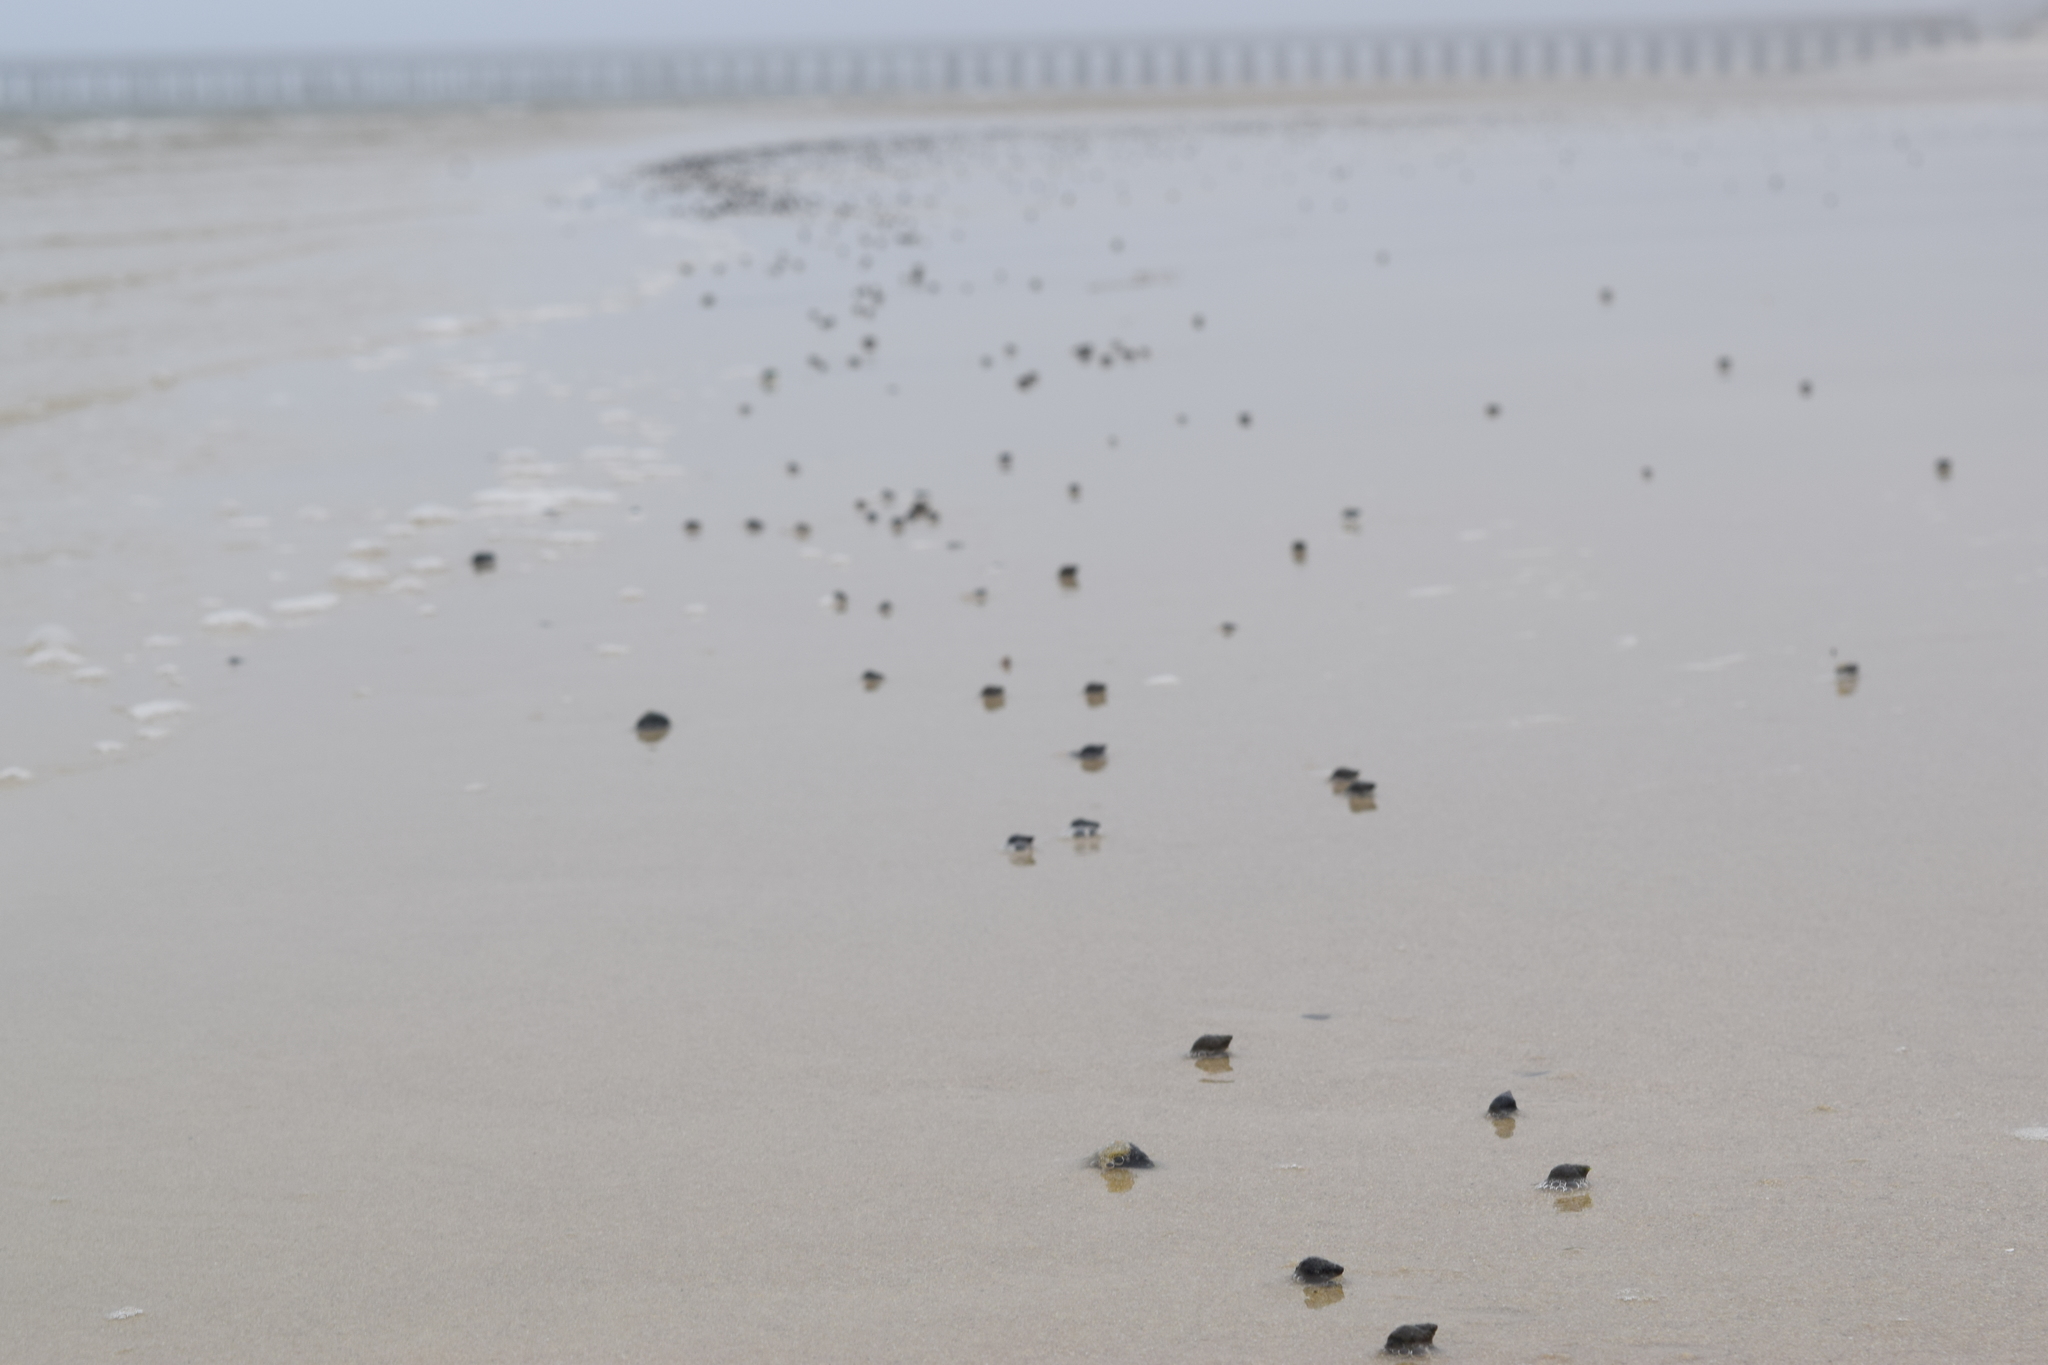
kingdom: Animalia
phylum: Mollusca
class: Gastropoda
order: Neogastropoda
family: Nassariidae
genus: Ilyanassa
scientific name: Ilyanassa obsoleta
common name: Eastern mudsnail
